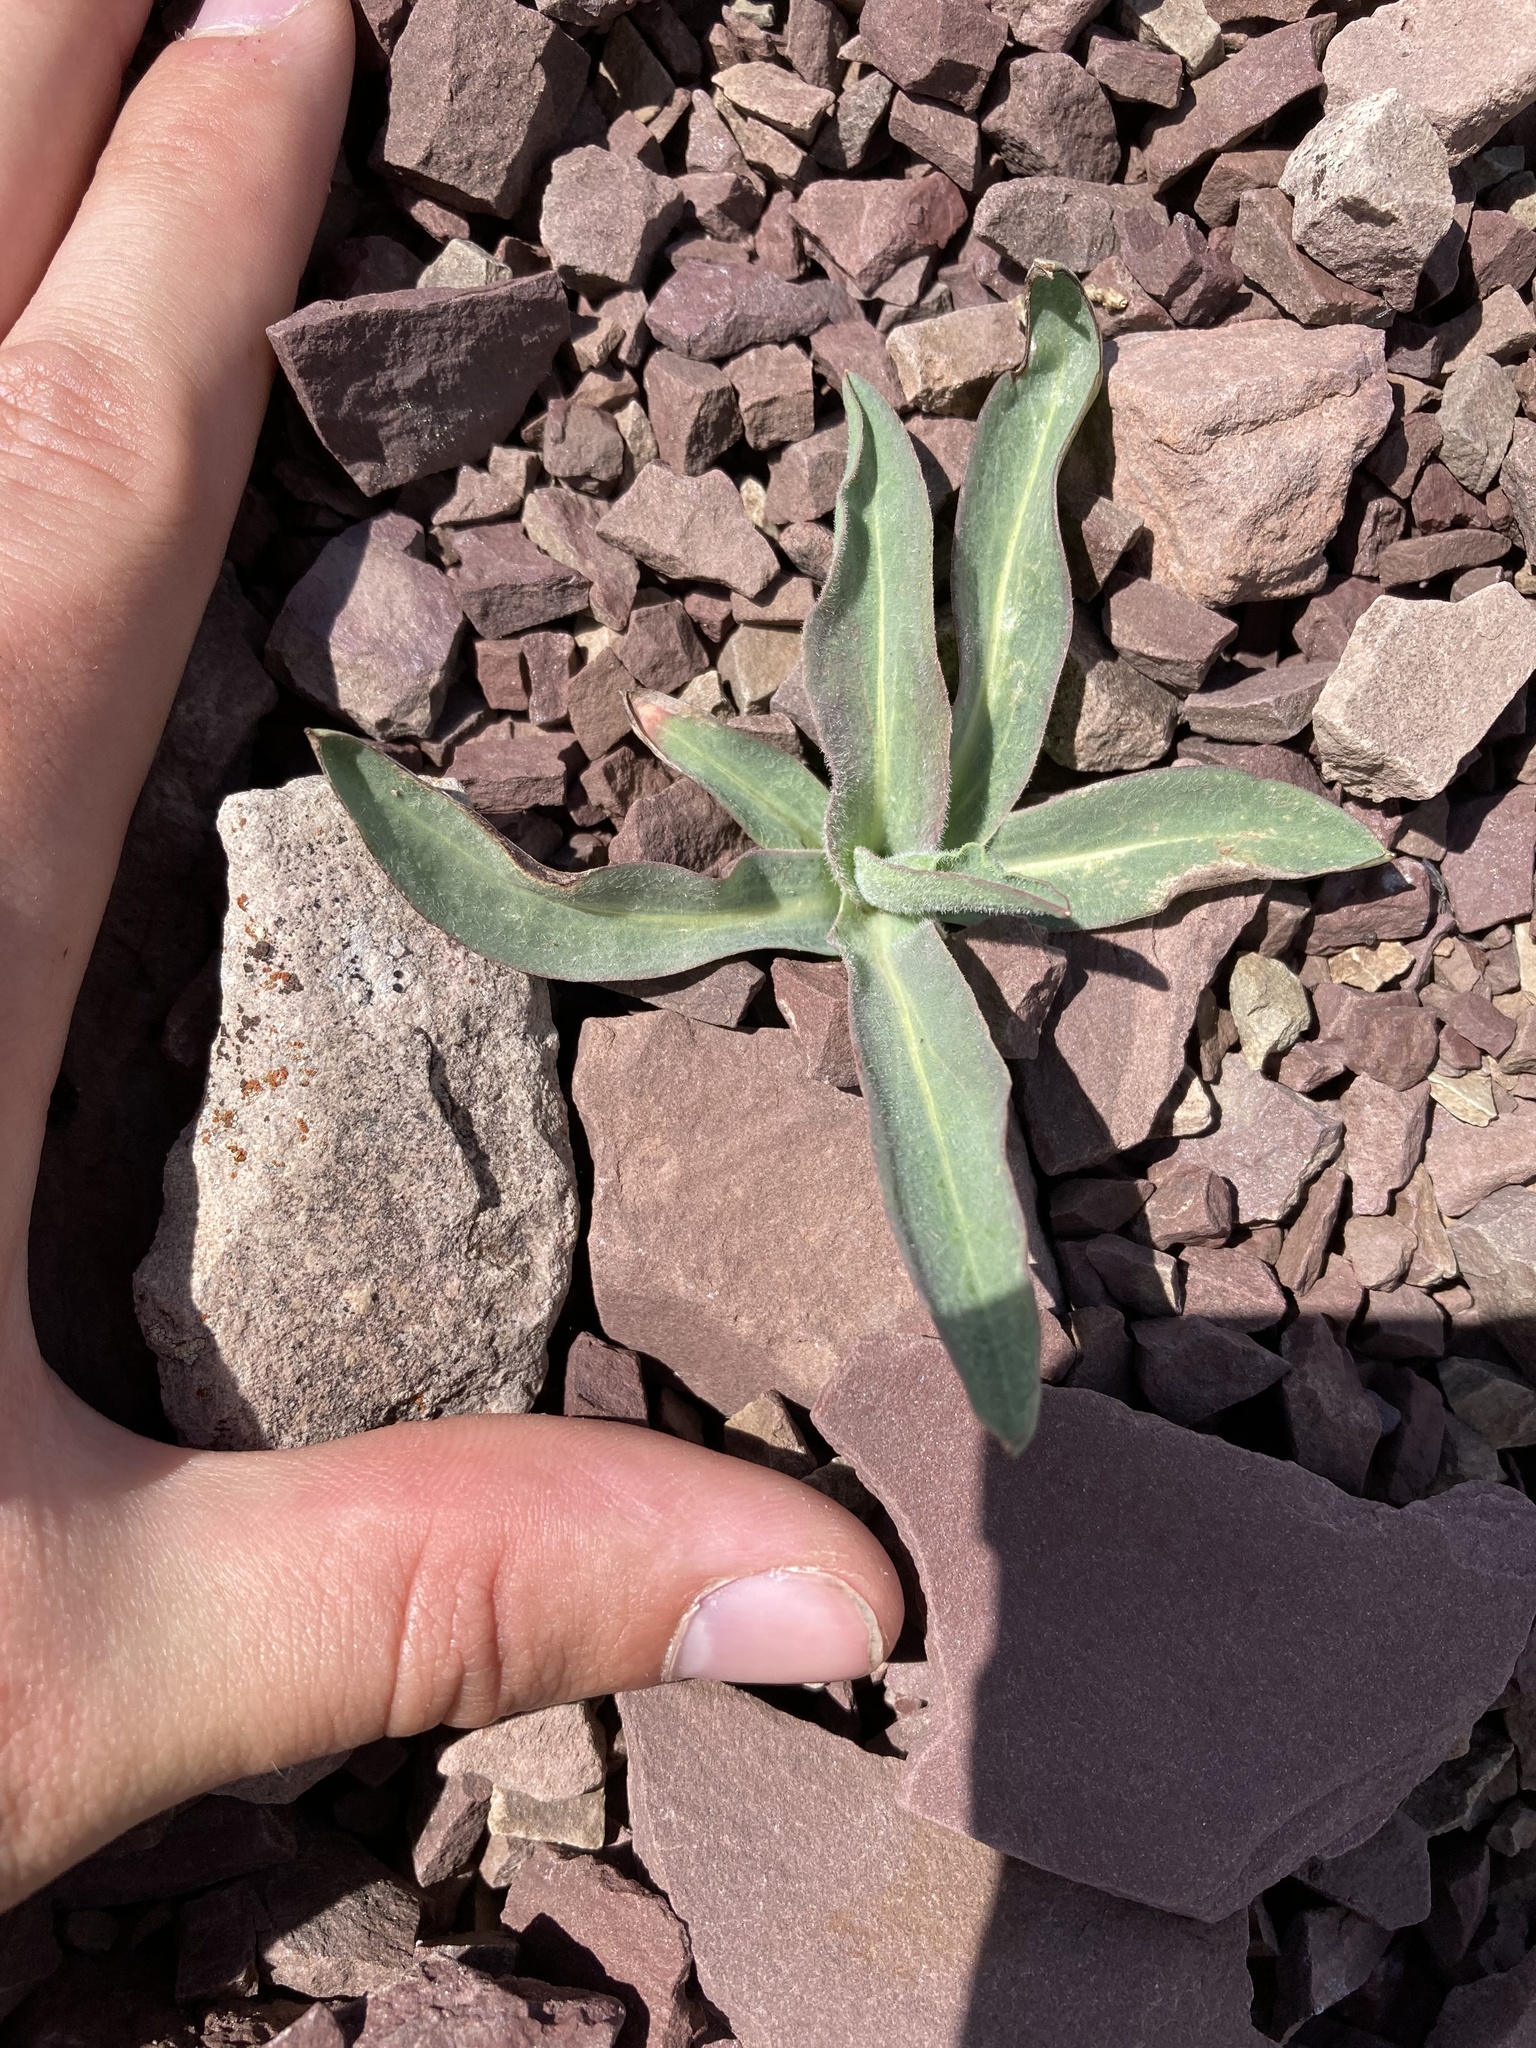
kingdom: Plantae
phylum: Tracheophyta
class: Magnoliopsida
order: Asterales
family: Asteraceae
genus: Agoseris
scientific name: Agoseris glauca
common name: Prairie agoseris
